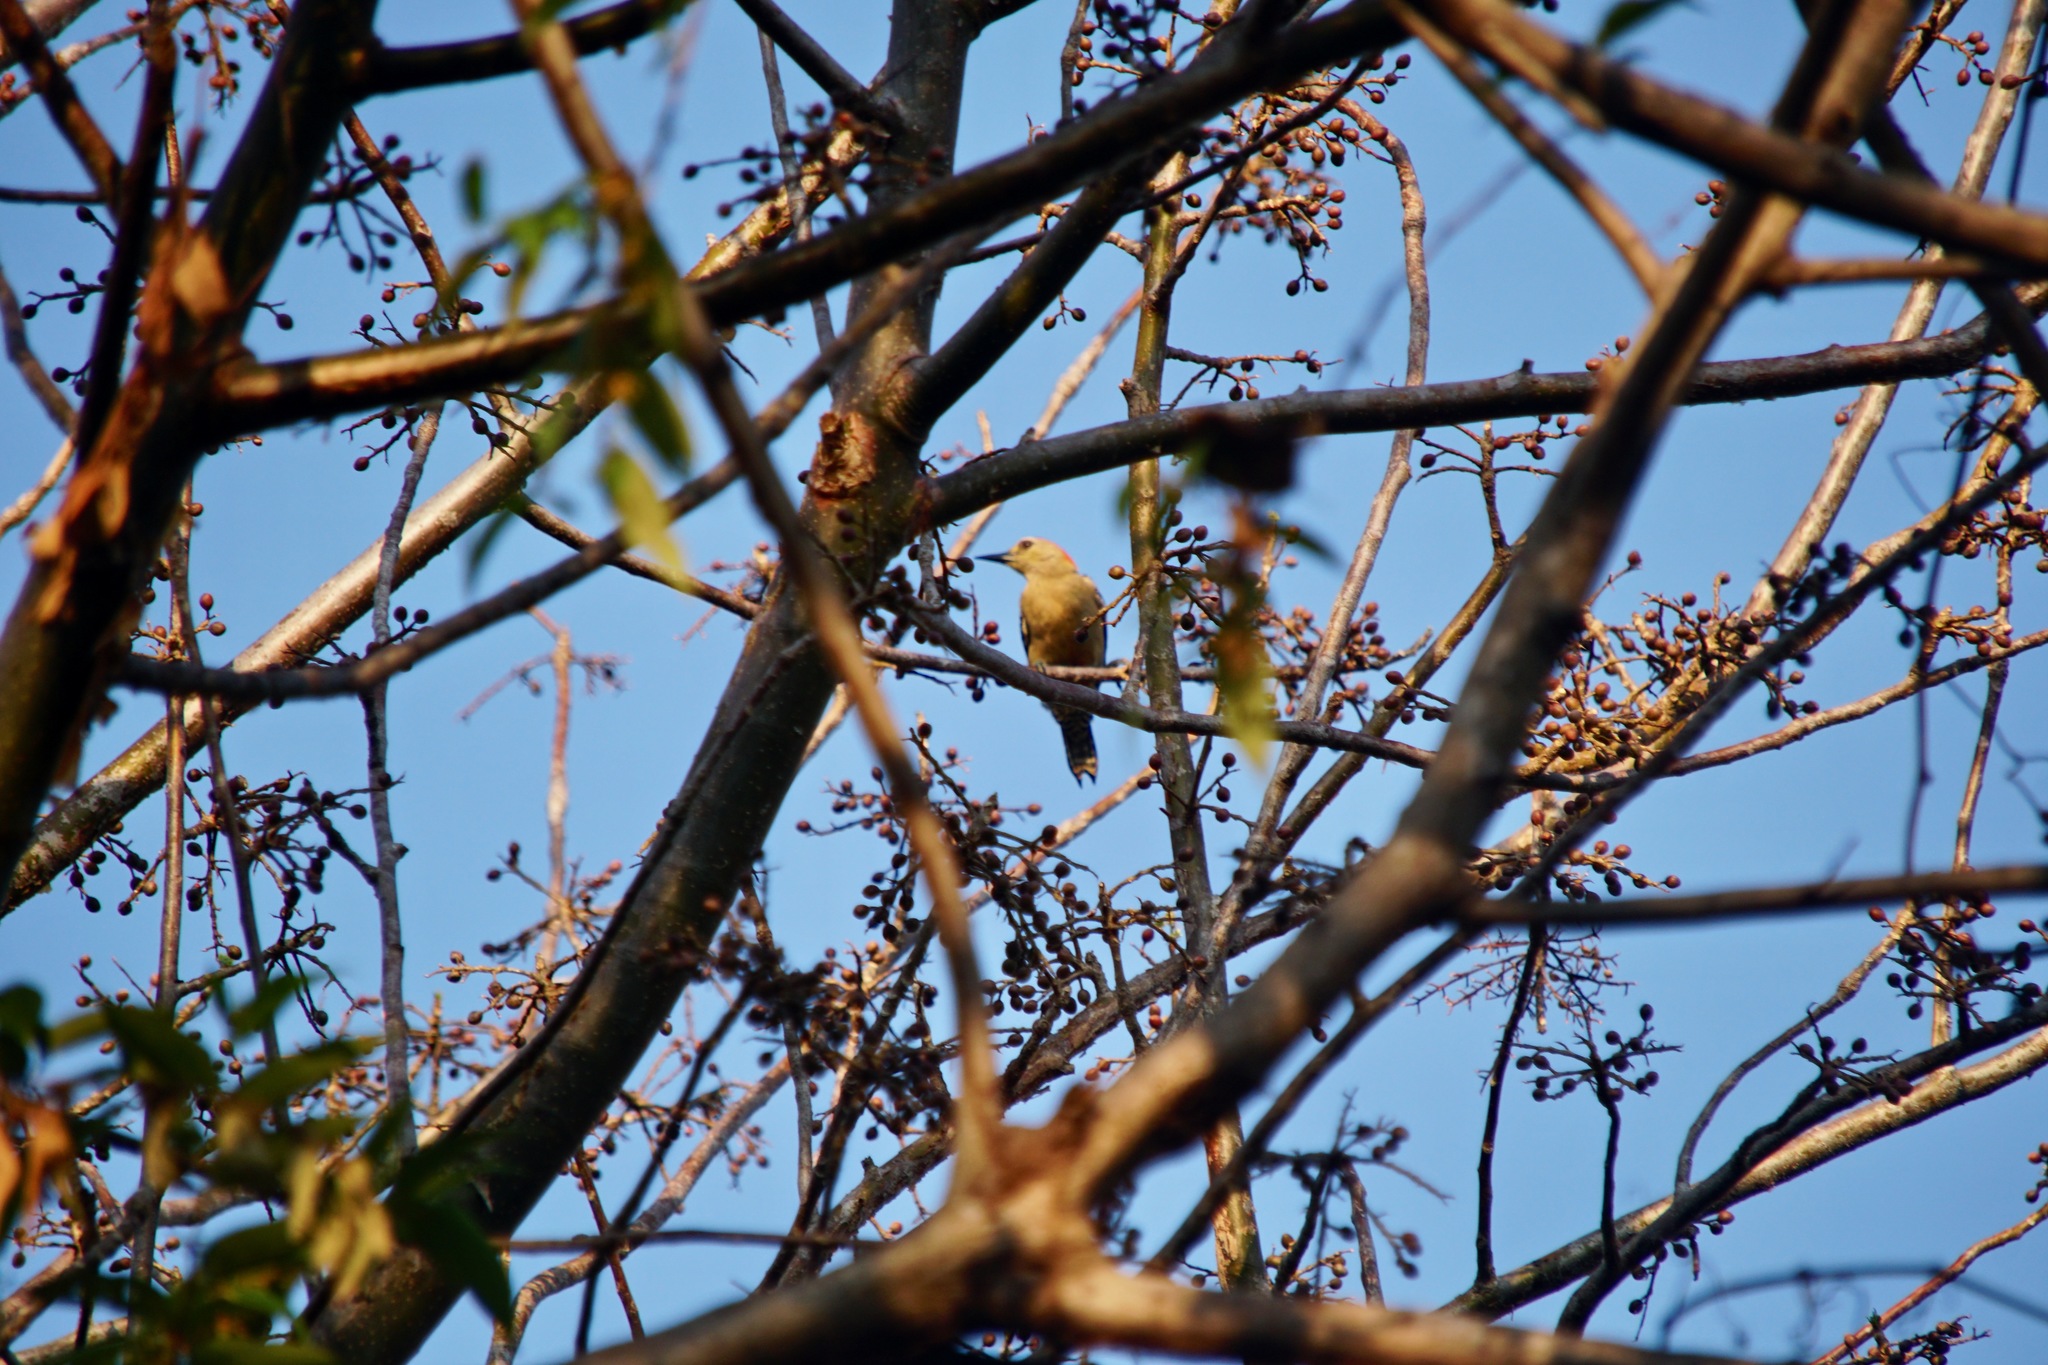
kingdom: Animalia
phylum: Chordata
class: Aves
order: Piciformes
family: Picidae
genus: Melanerpes
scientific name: Melanerpes rubricapillus
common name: Red-crowned woodpecker
